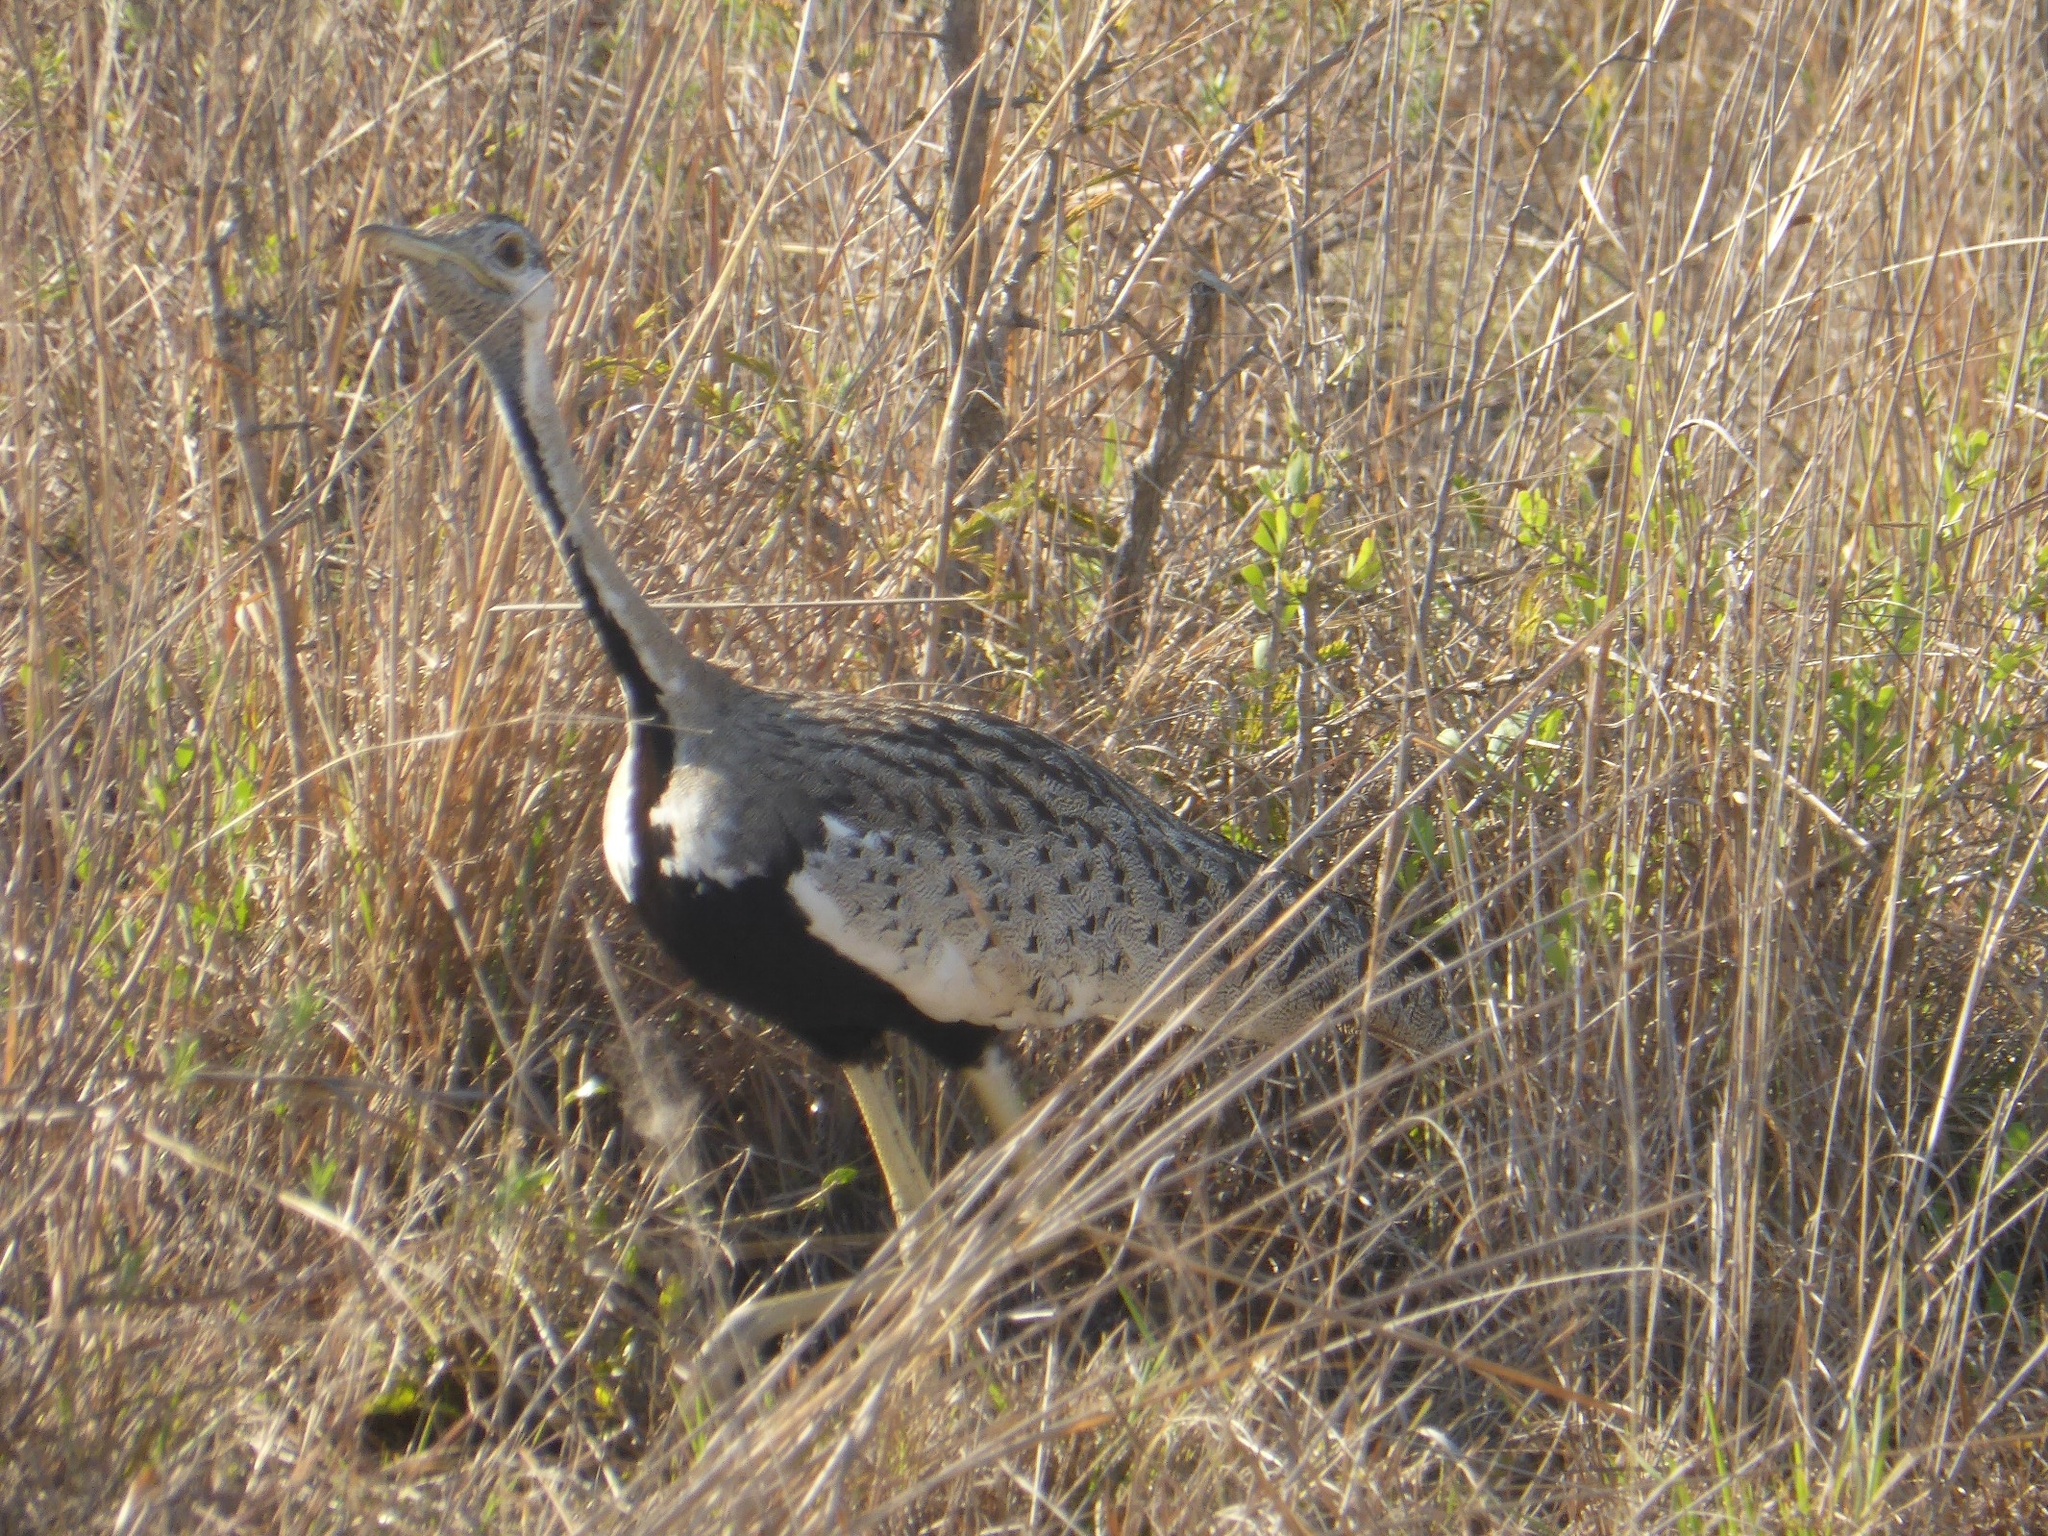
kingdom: Animalia
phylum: Chordata
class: Aves
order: Otidiformes
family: Otididae
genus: Lissotis
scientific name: Lissotis melanogaster
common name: Black-bellied bustard
